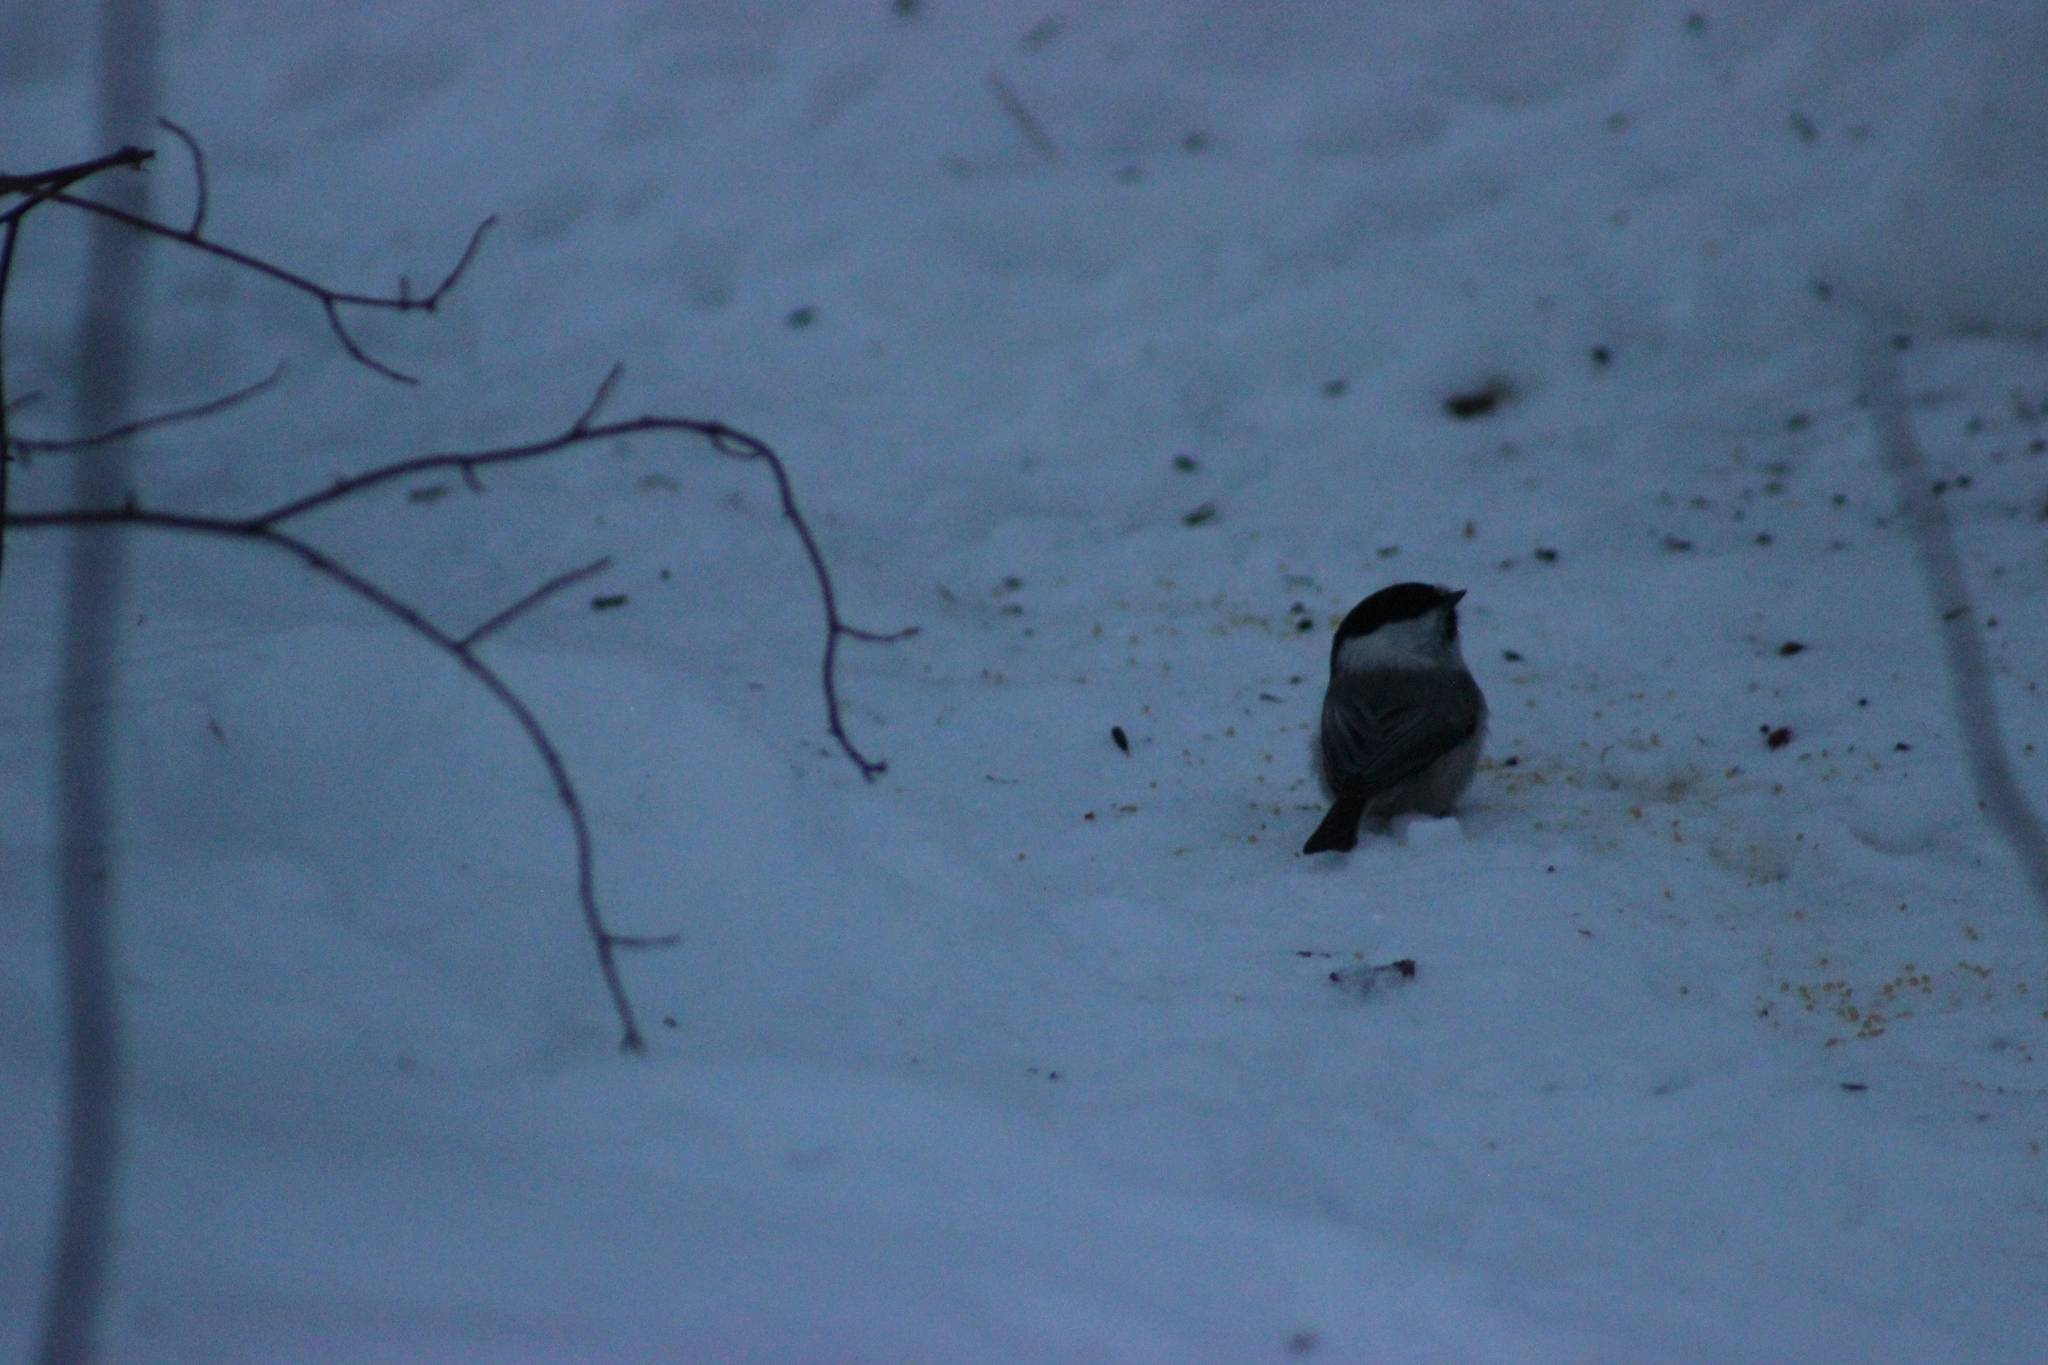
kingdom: Animalia
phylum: Chordata
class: Aves
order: Passeriformes
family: Paridae
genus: Poecile
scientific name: Poecile montanus
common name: Willow tit
